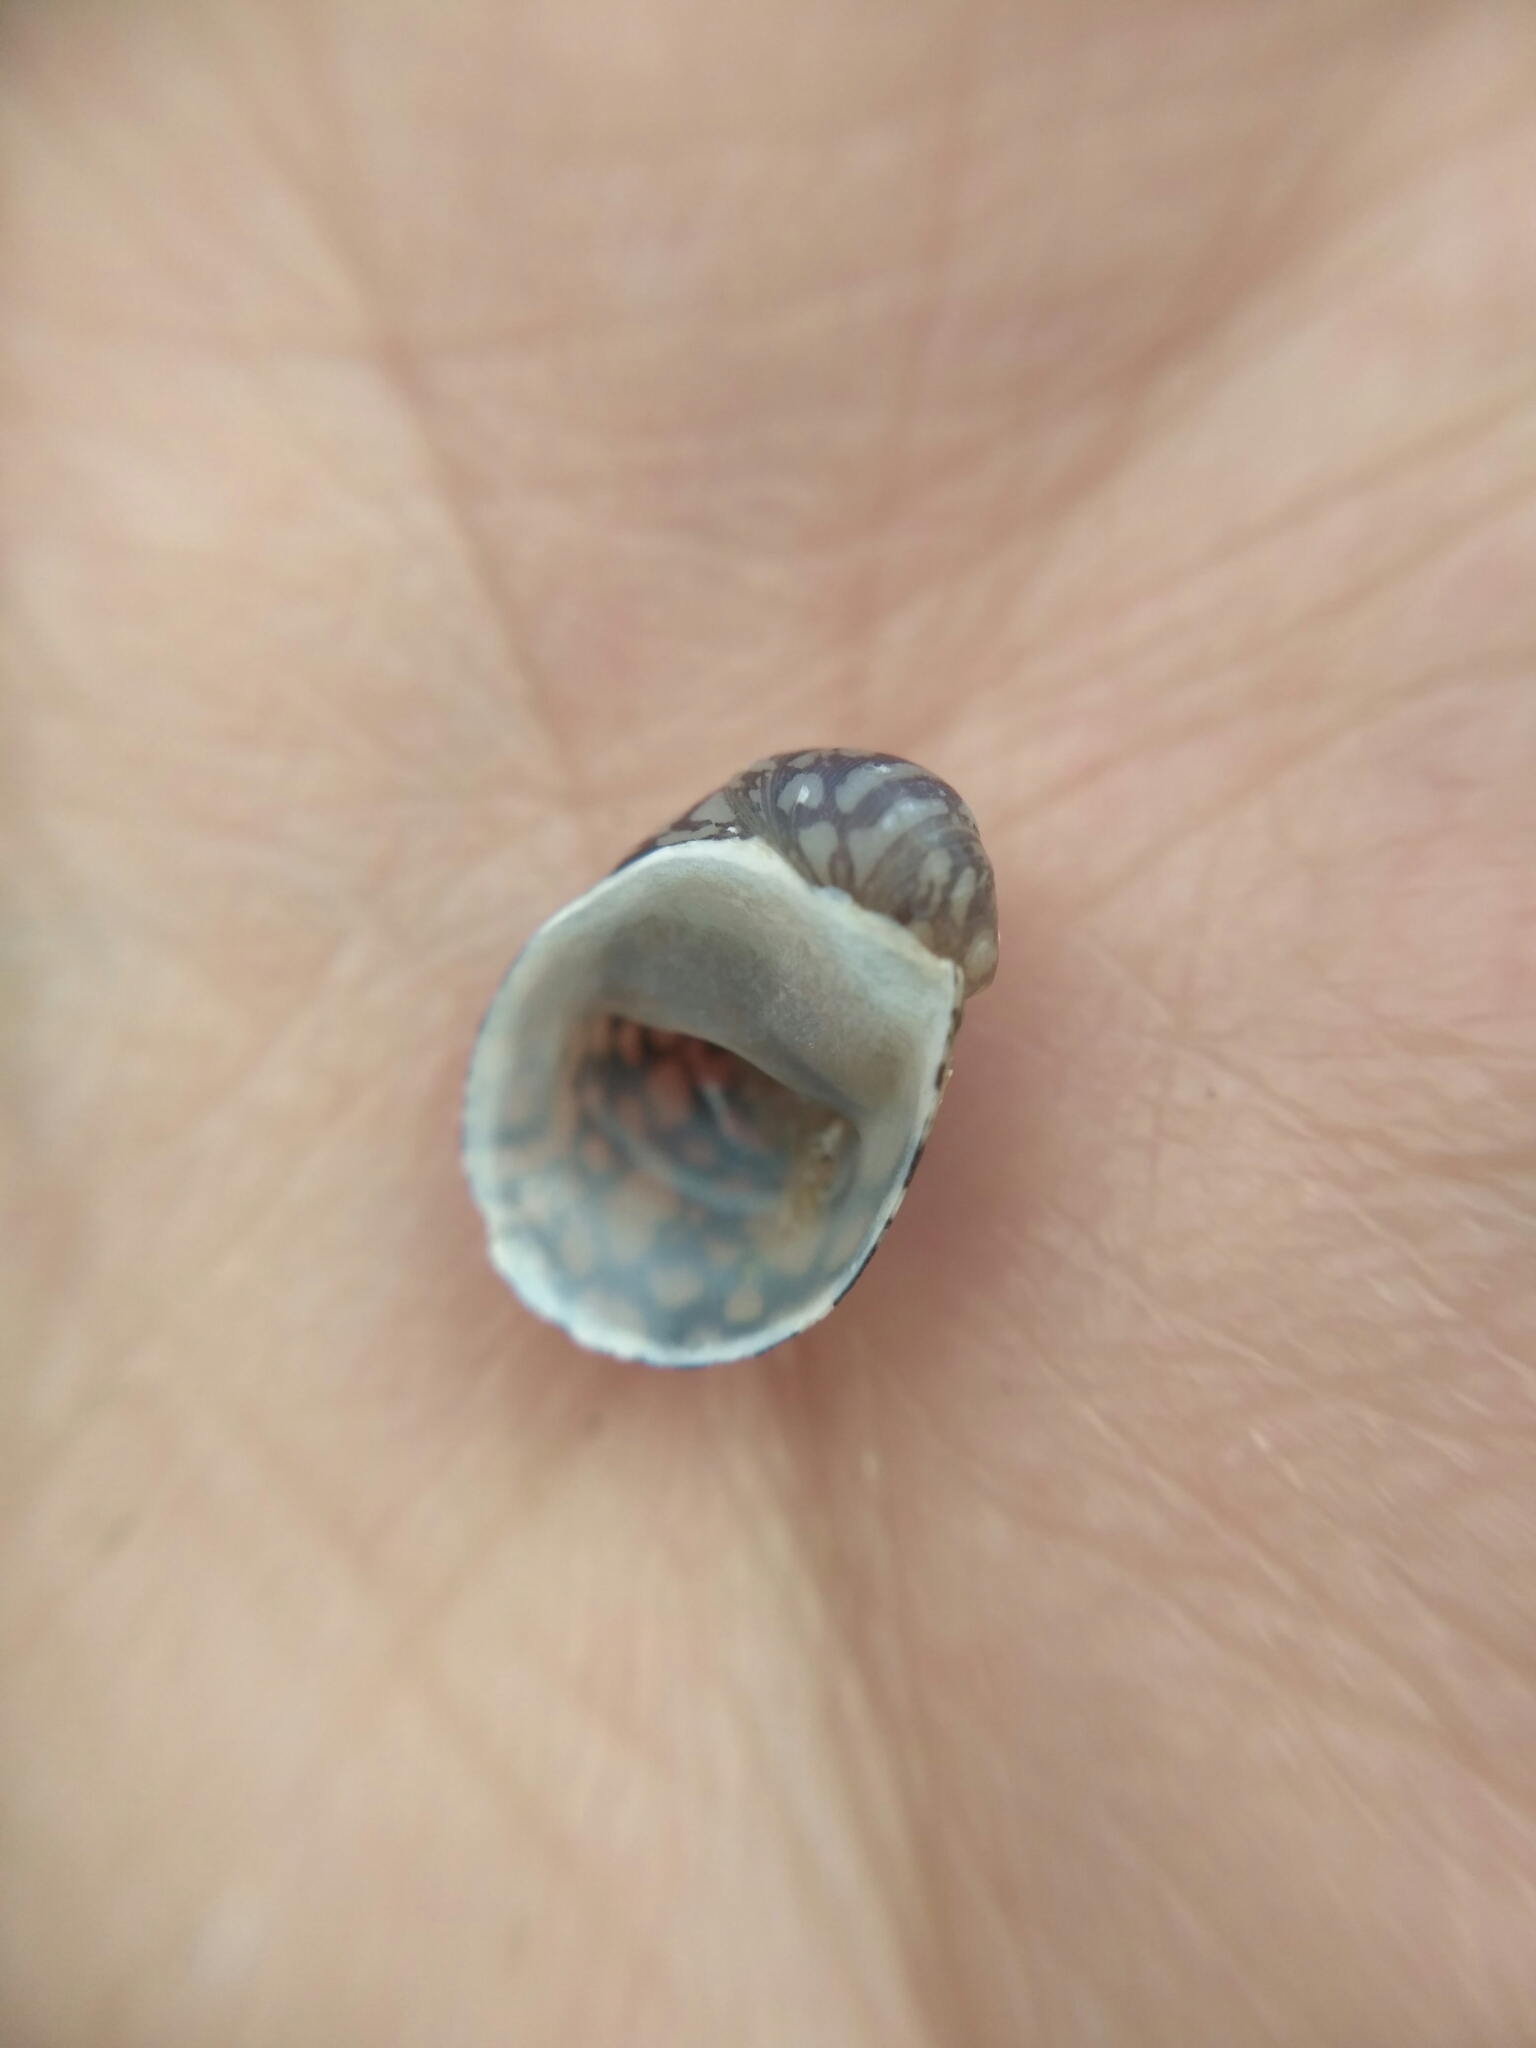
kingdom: Animalia
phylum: Mollusca
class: Gastropoda
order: Cycloneritida
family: Neritidae
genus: Theodoxus
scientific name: Theodoxus fluviatilis
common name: River nerite
